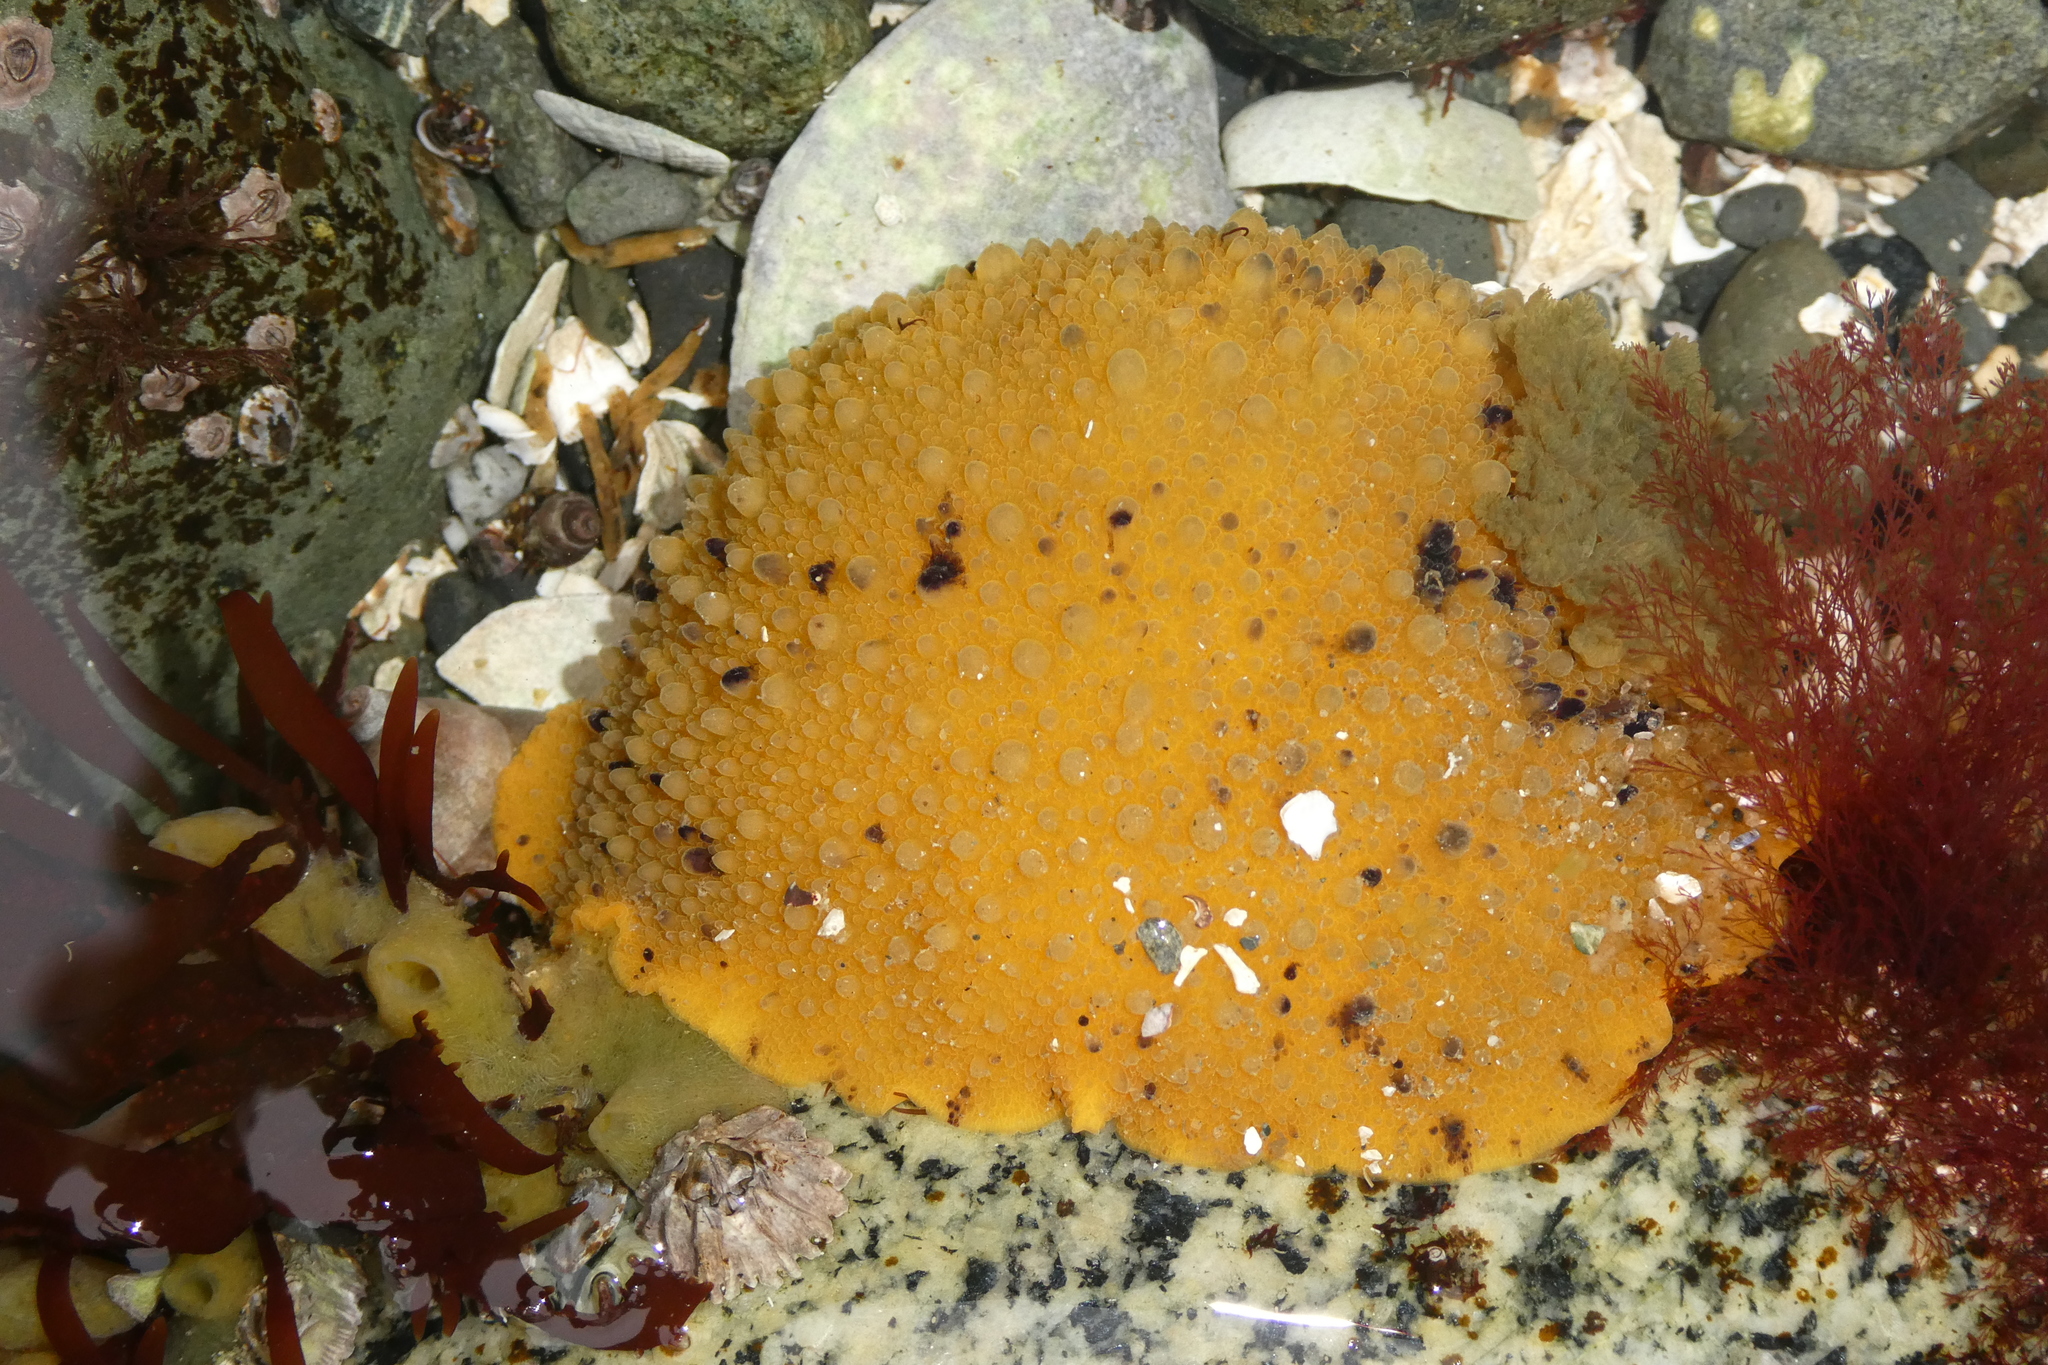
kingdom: Animalia
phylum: Mollusca
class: Gastropoda
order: Nudibranchia
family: Dorididae
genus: Doris
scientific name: Doris montereyensis
